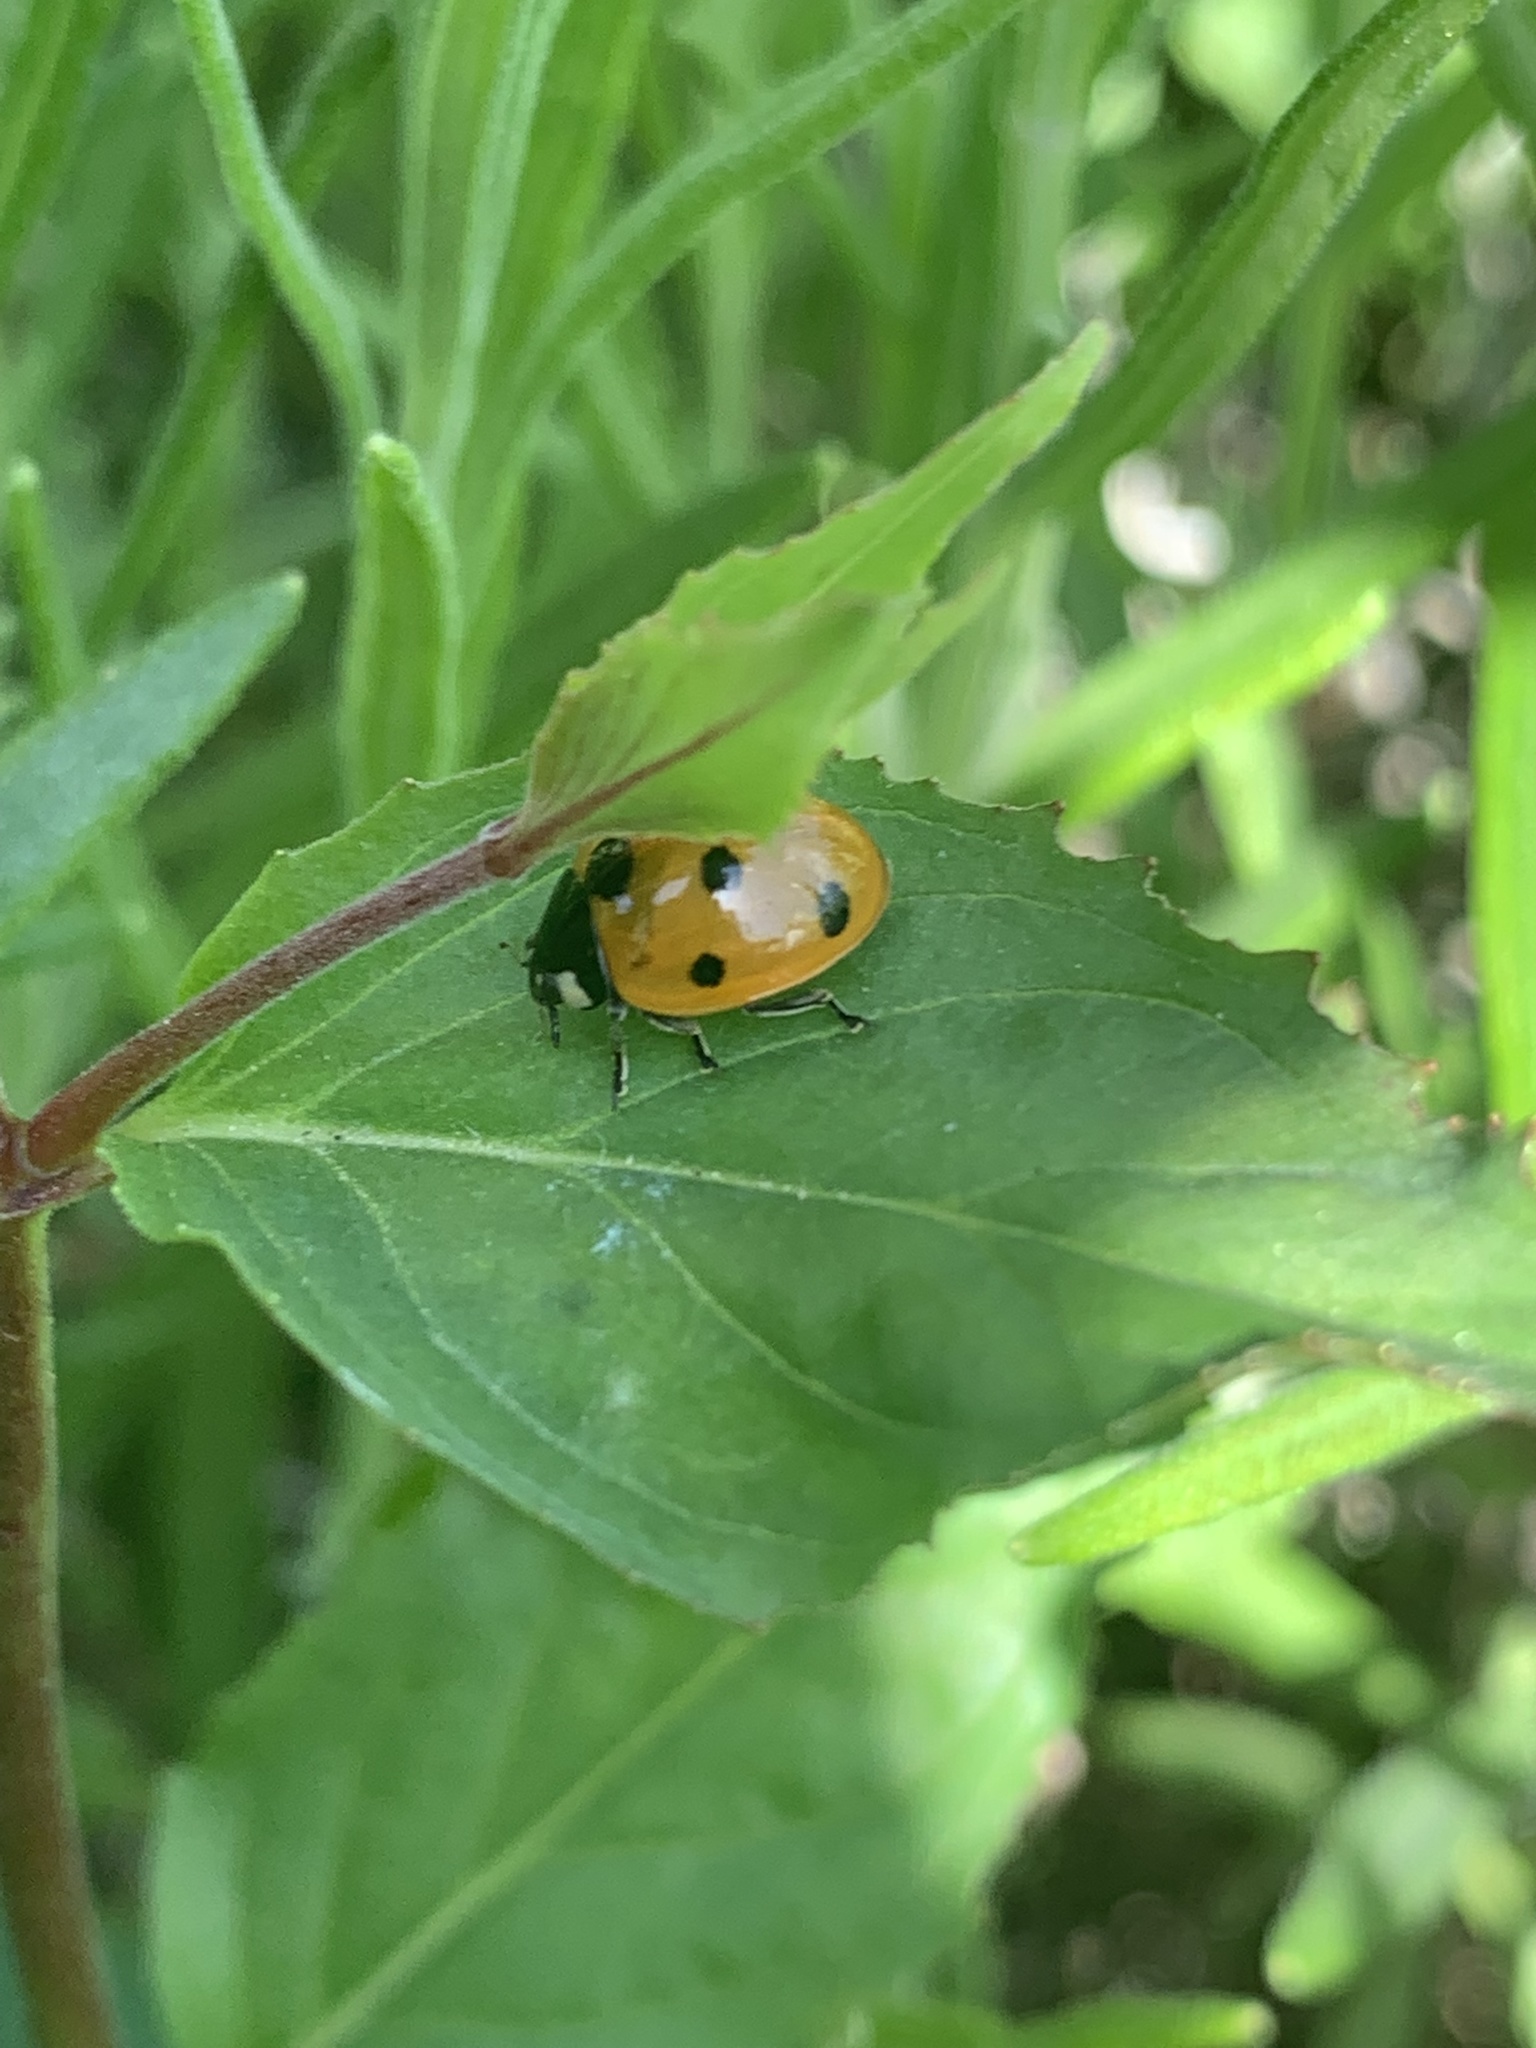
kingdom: Animalia
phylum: Arthropoda
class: Insecta
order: Coleoptera
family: Coccinellidae
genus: Coccinella
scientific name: Coccinella septempunctata
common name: Sevenspotted lady beetle
